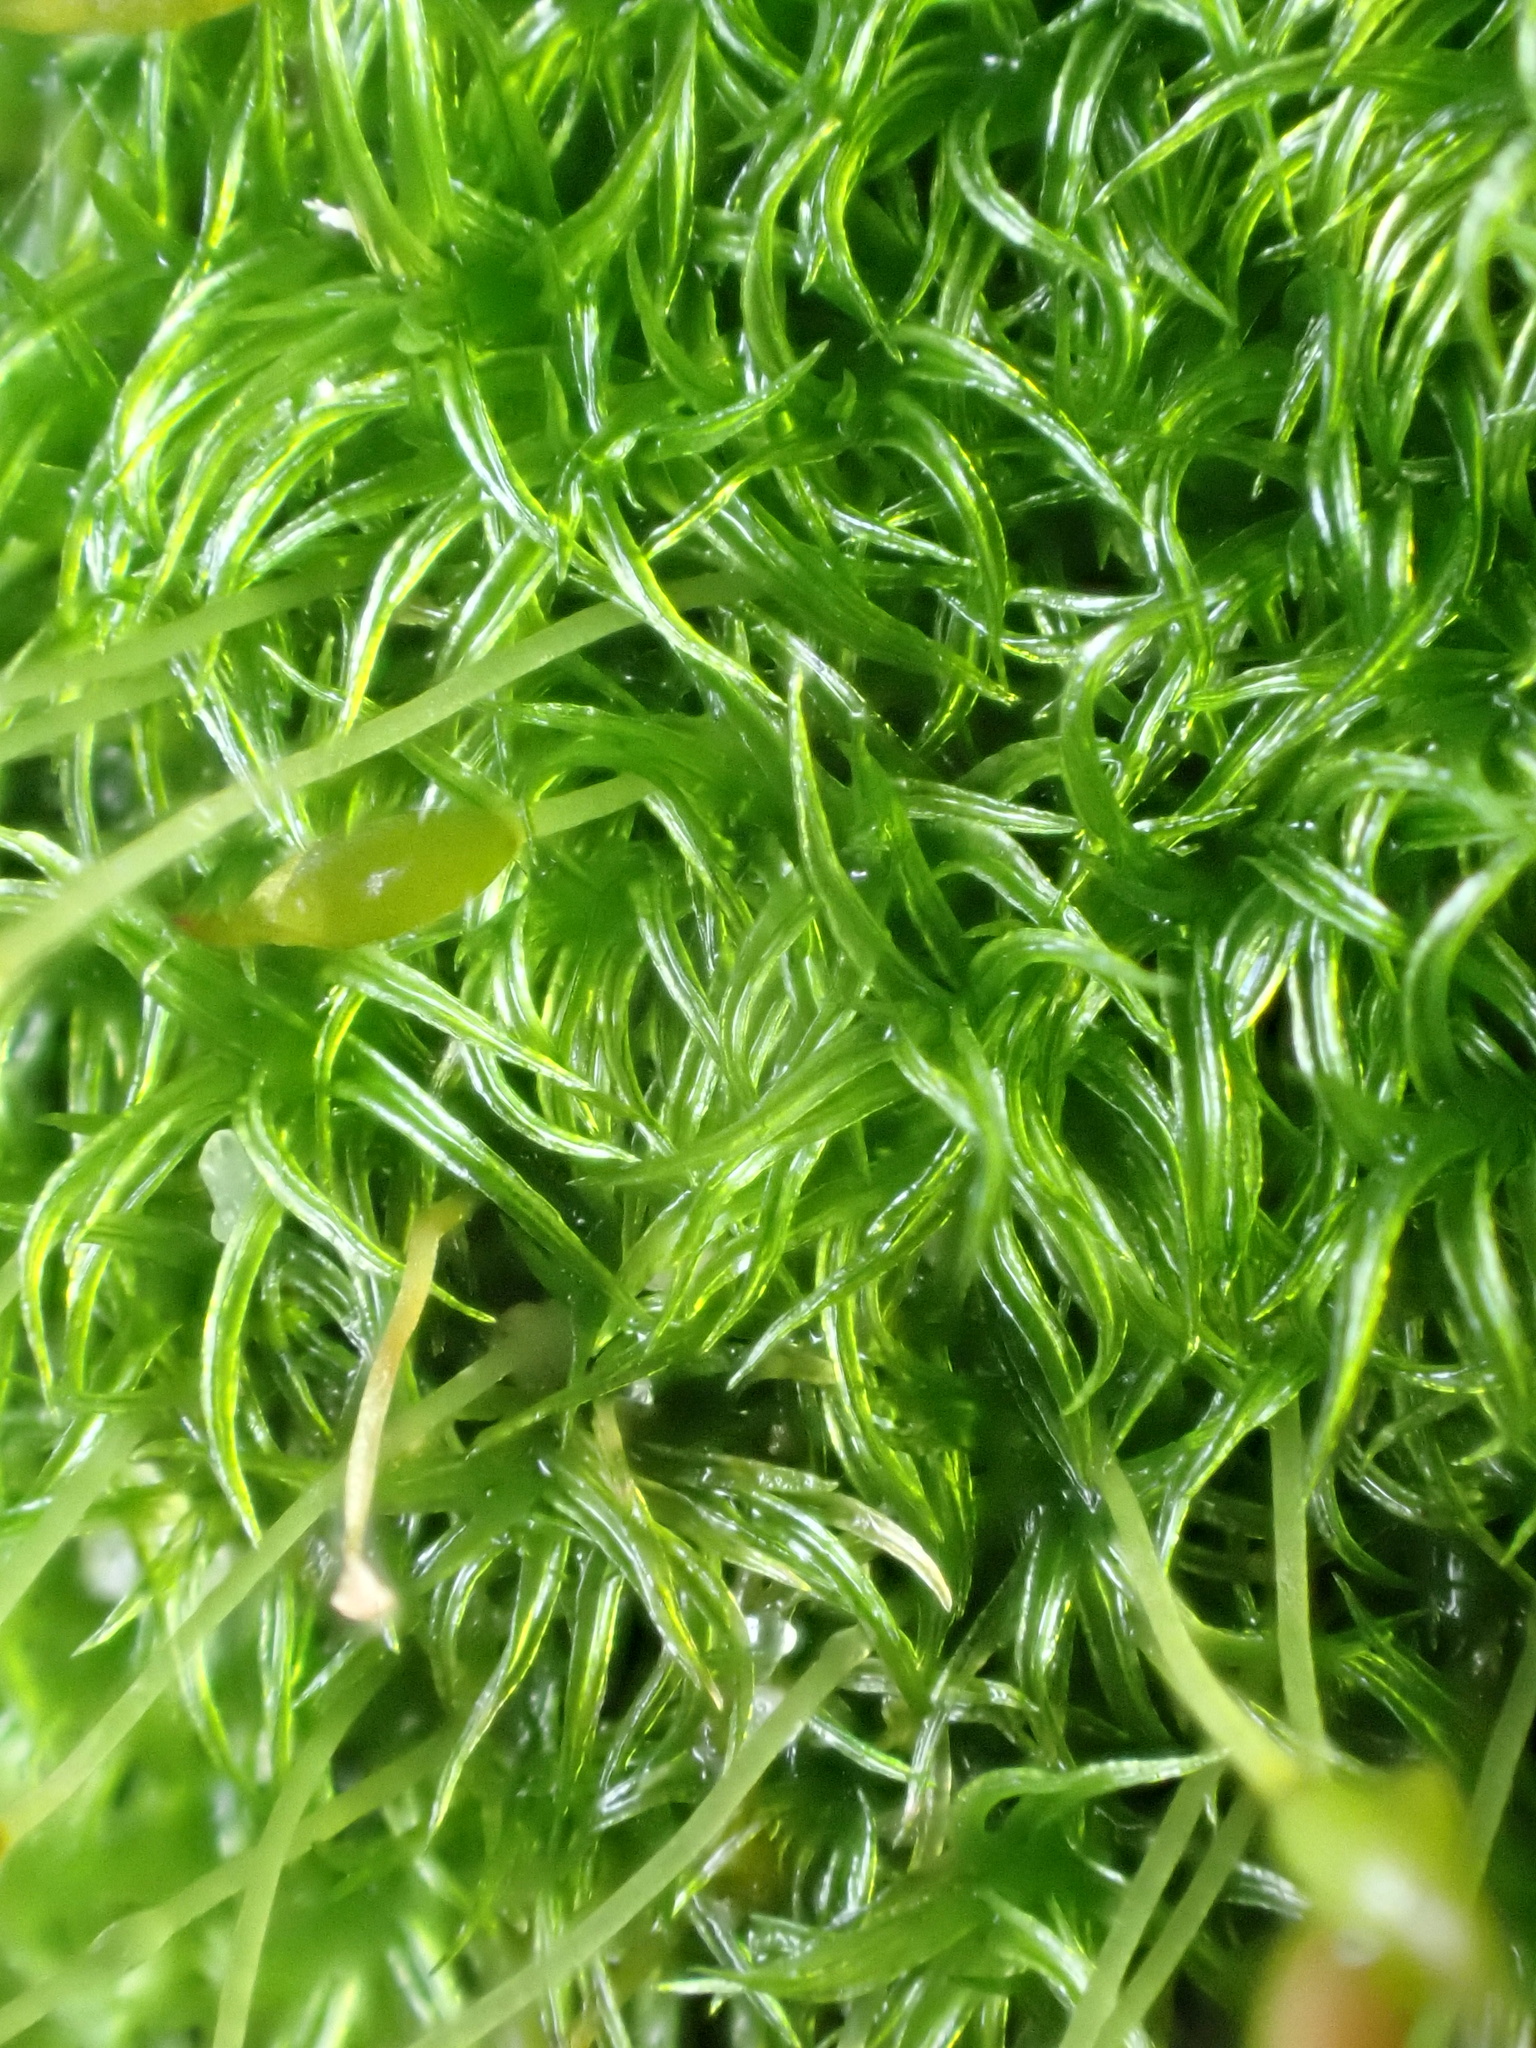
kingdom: Plantae
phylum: Bryophyta
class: Bryopsida
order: Dicranales
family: Rhabdoweisiaceae
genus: Dicranoweisia
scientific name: Dicranoweisia cirrata
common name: Common pincushion
